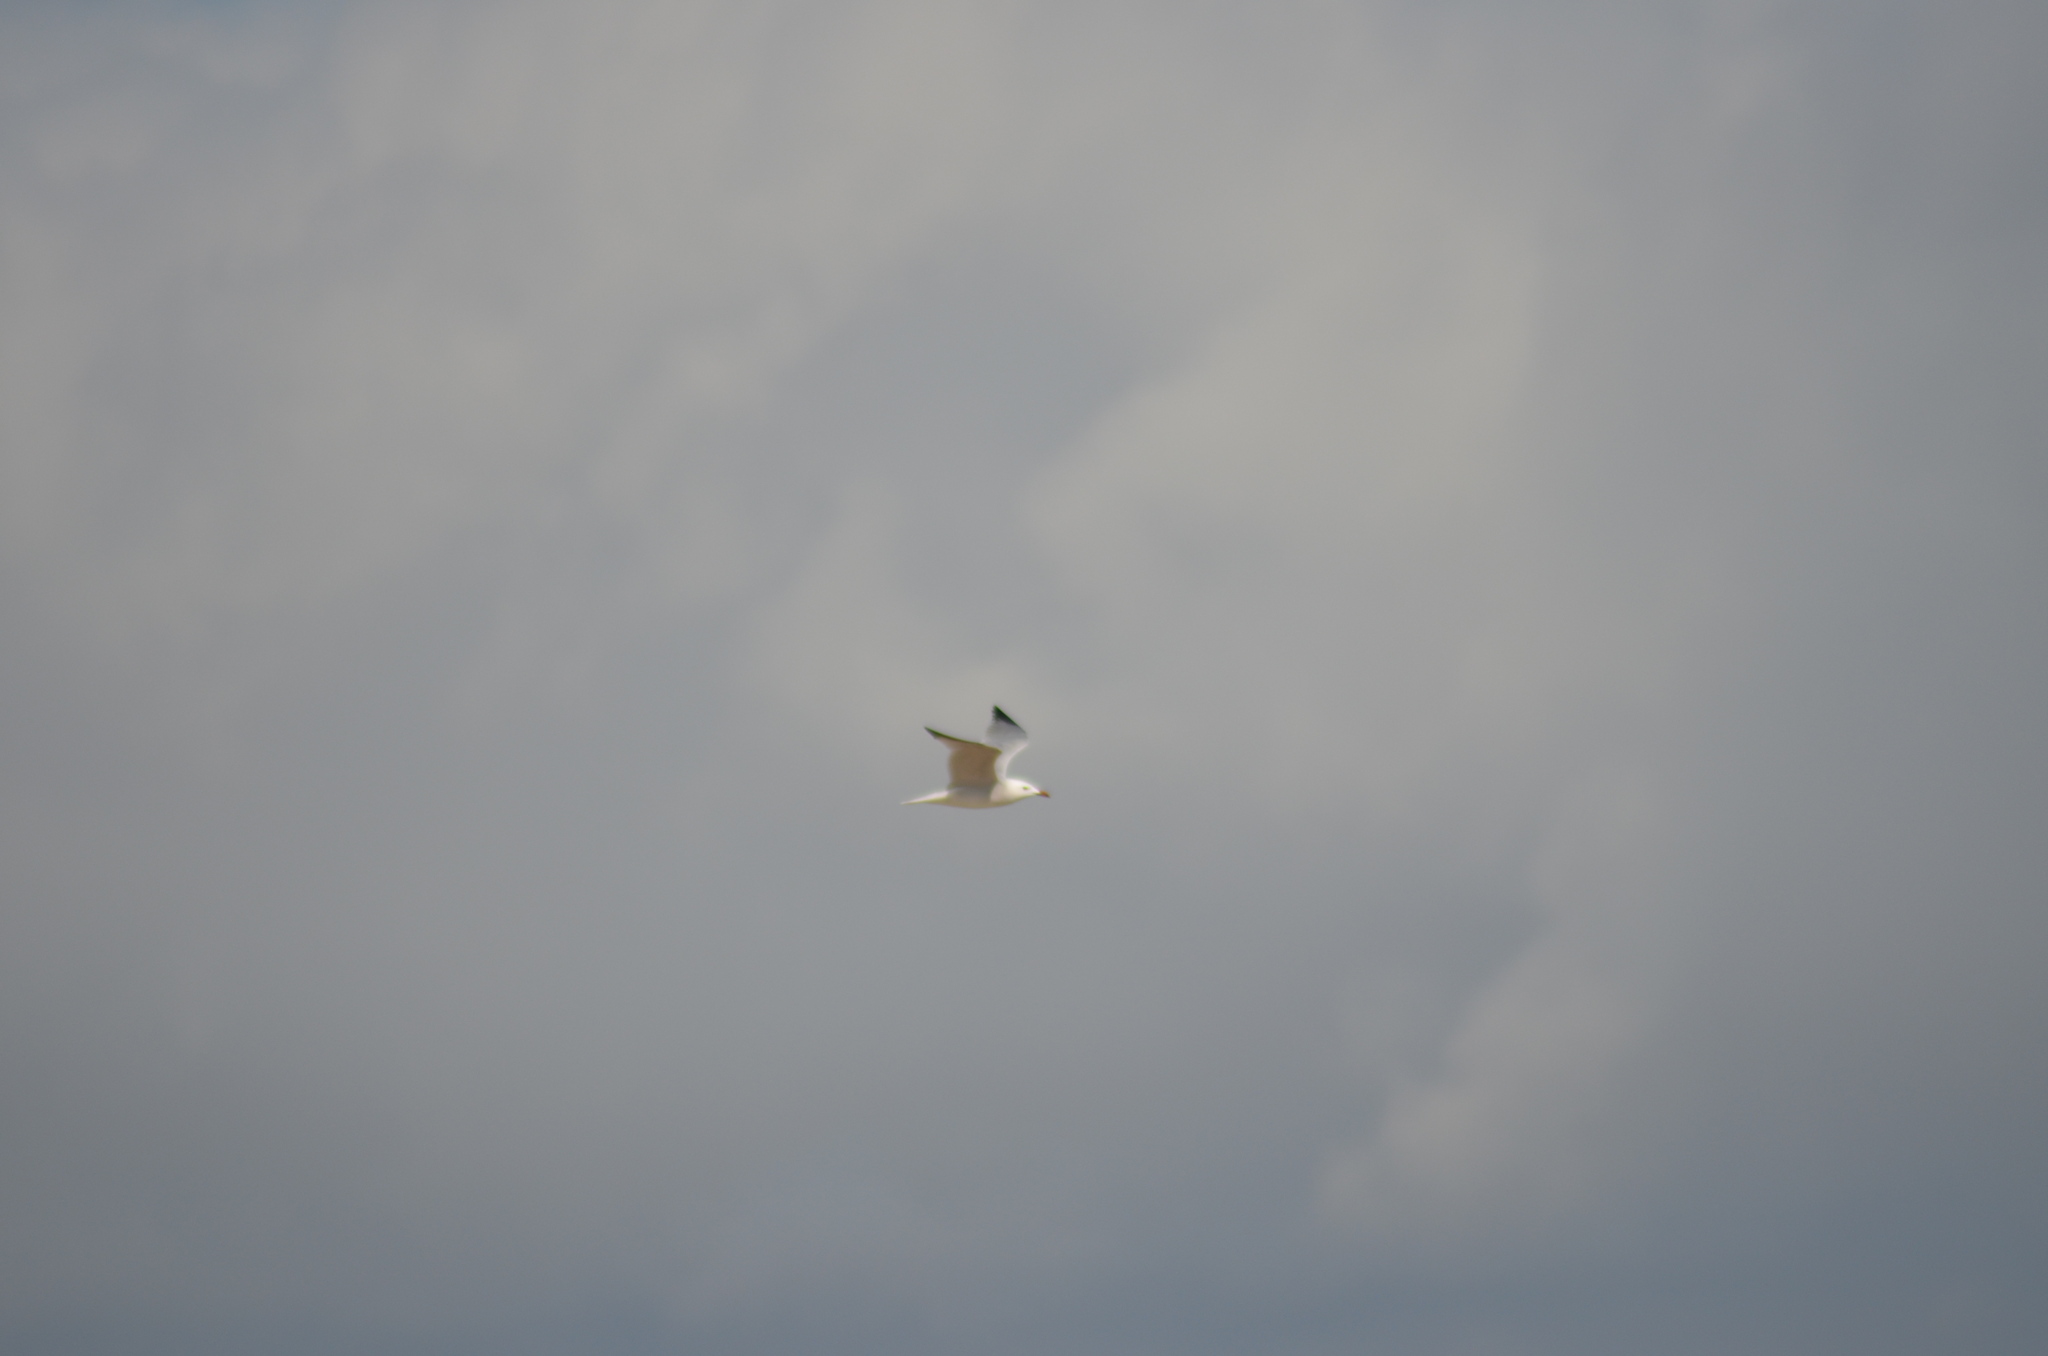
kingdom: Animalia
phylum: Chordata
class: Aves
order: Charadriiformes
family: Laridae
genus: Larus
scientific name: Larus michahellis
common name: Yellow-legged gull
